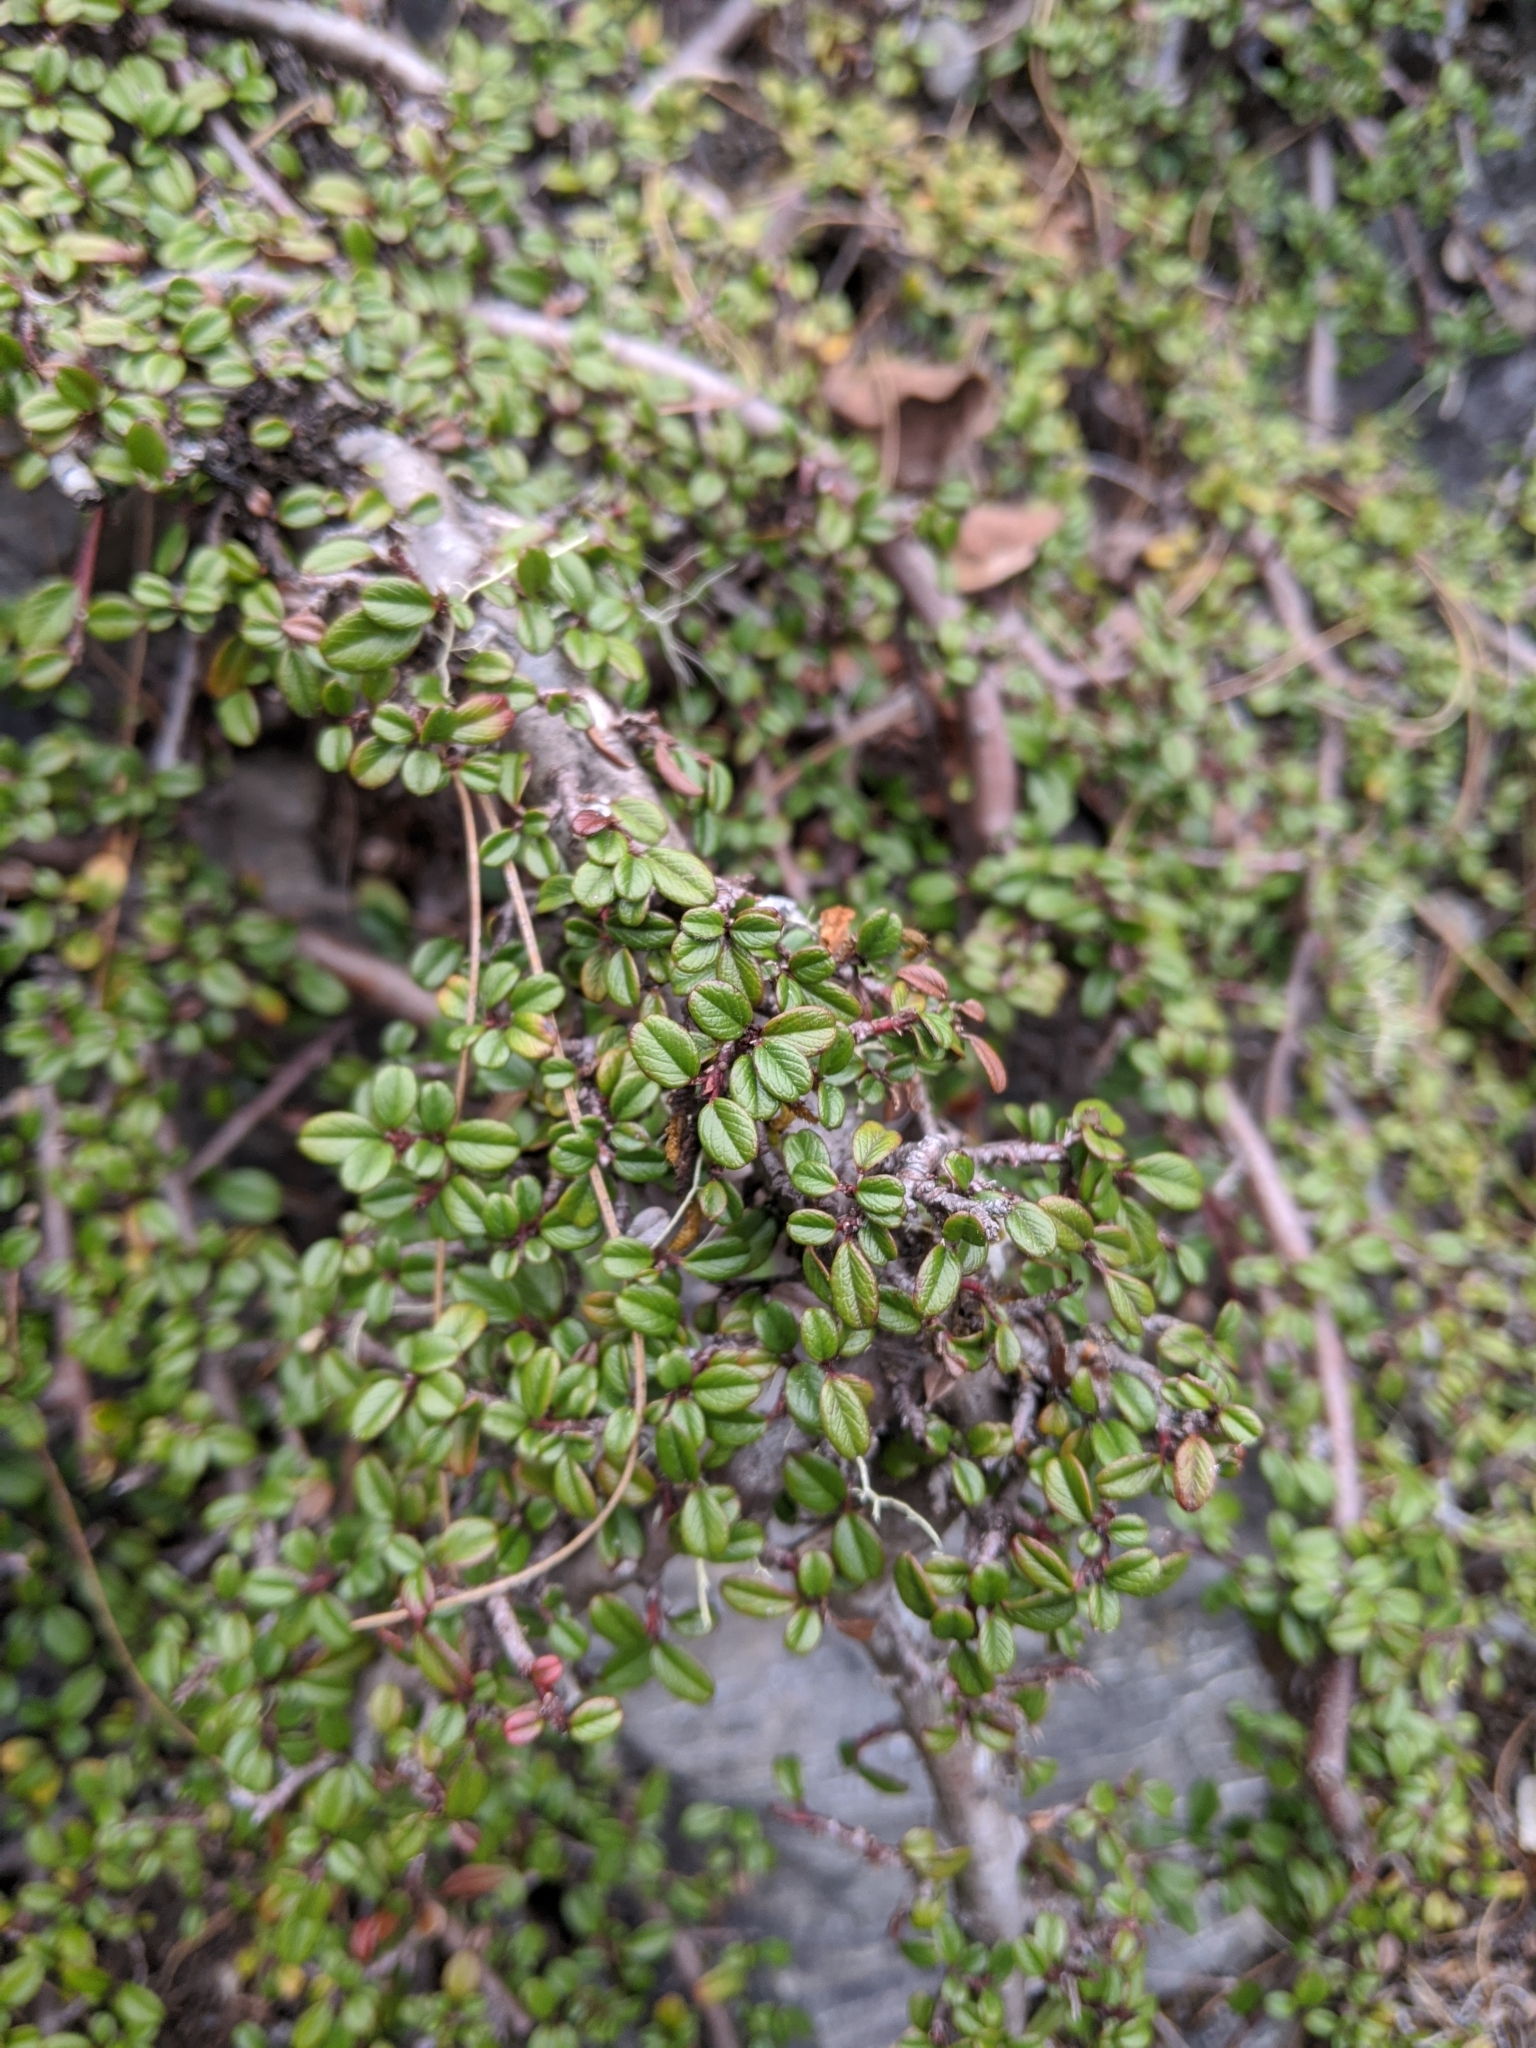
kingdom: Plantae
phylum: Tracheophyta
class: Magnoliopsida
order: Rosales
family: Rosaceae
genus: Cotoneaster
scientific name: Cotoneaster morrisonensis
